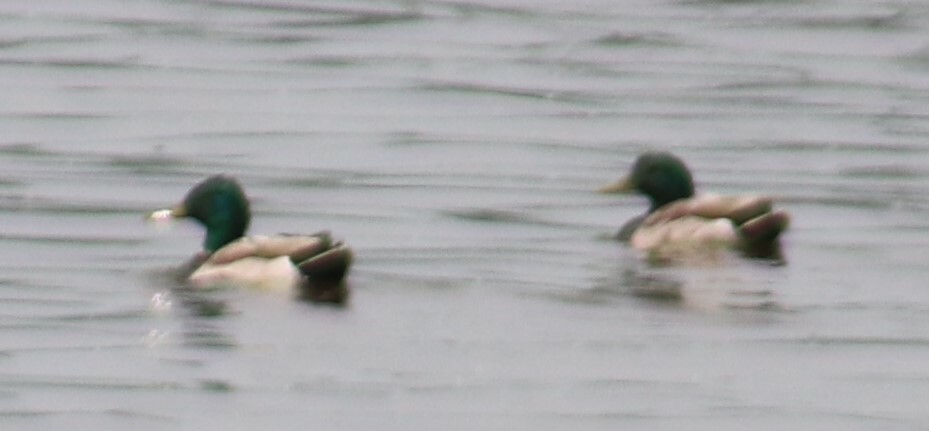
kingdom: Animalia
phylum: Chordata
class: Aves
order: Anseriformes
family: Anatidae
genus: Anas
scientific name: Anas platyrhynchos
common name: Mallard
